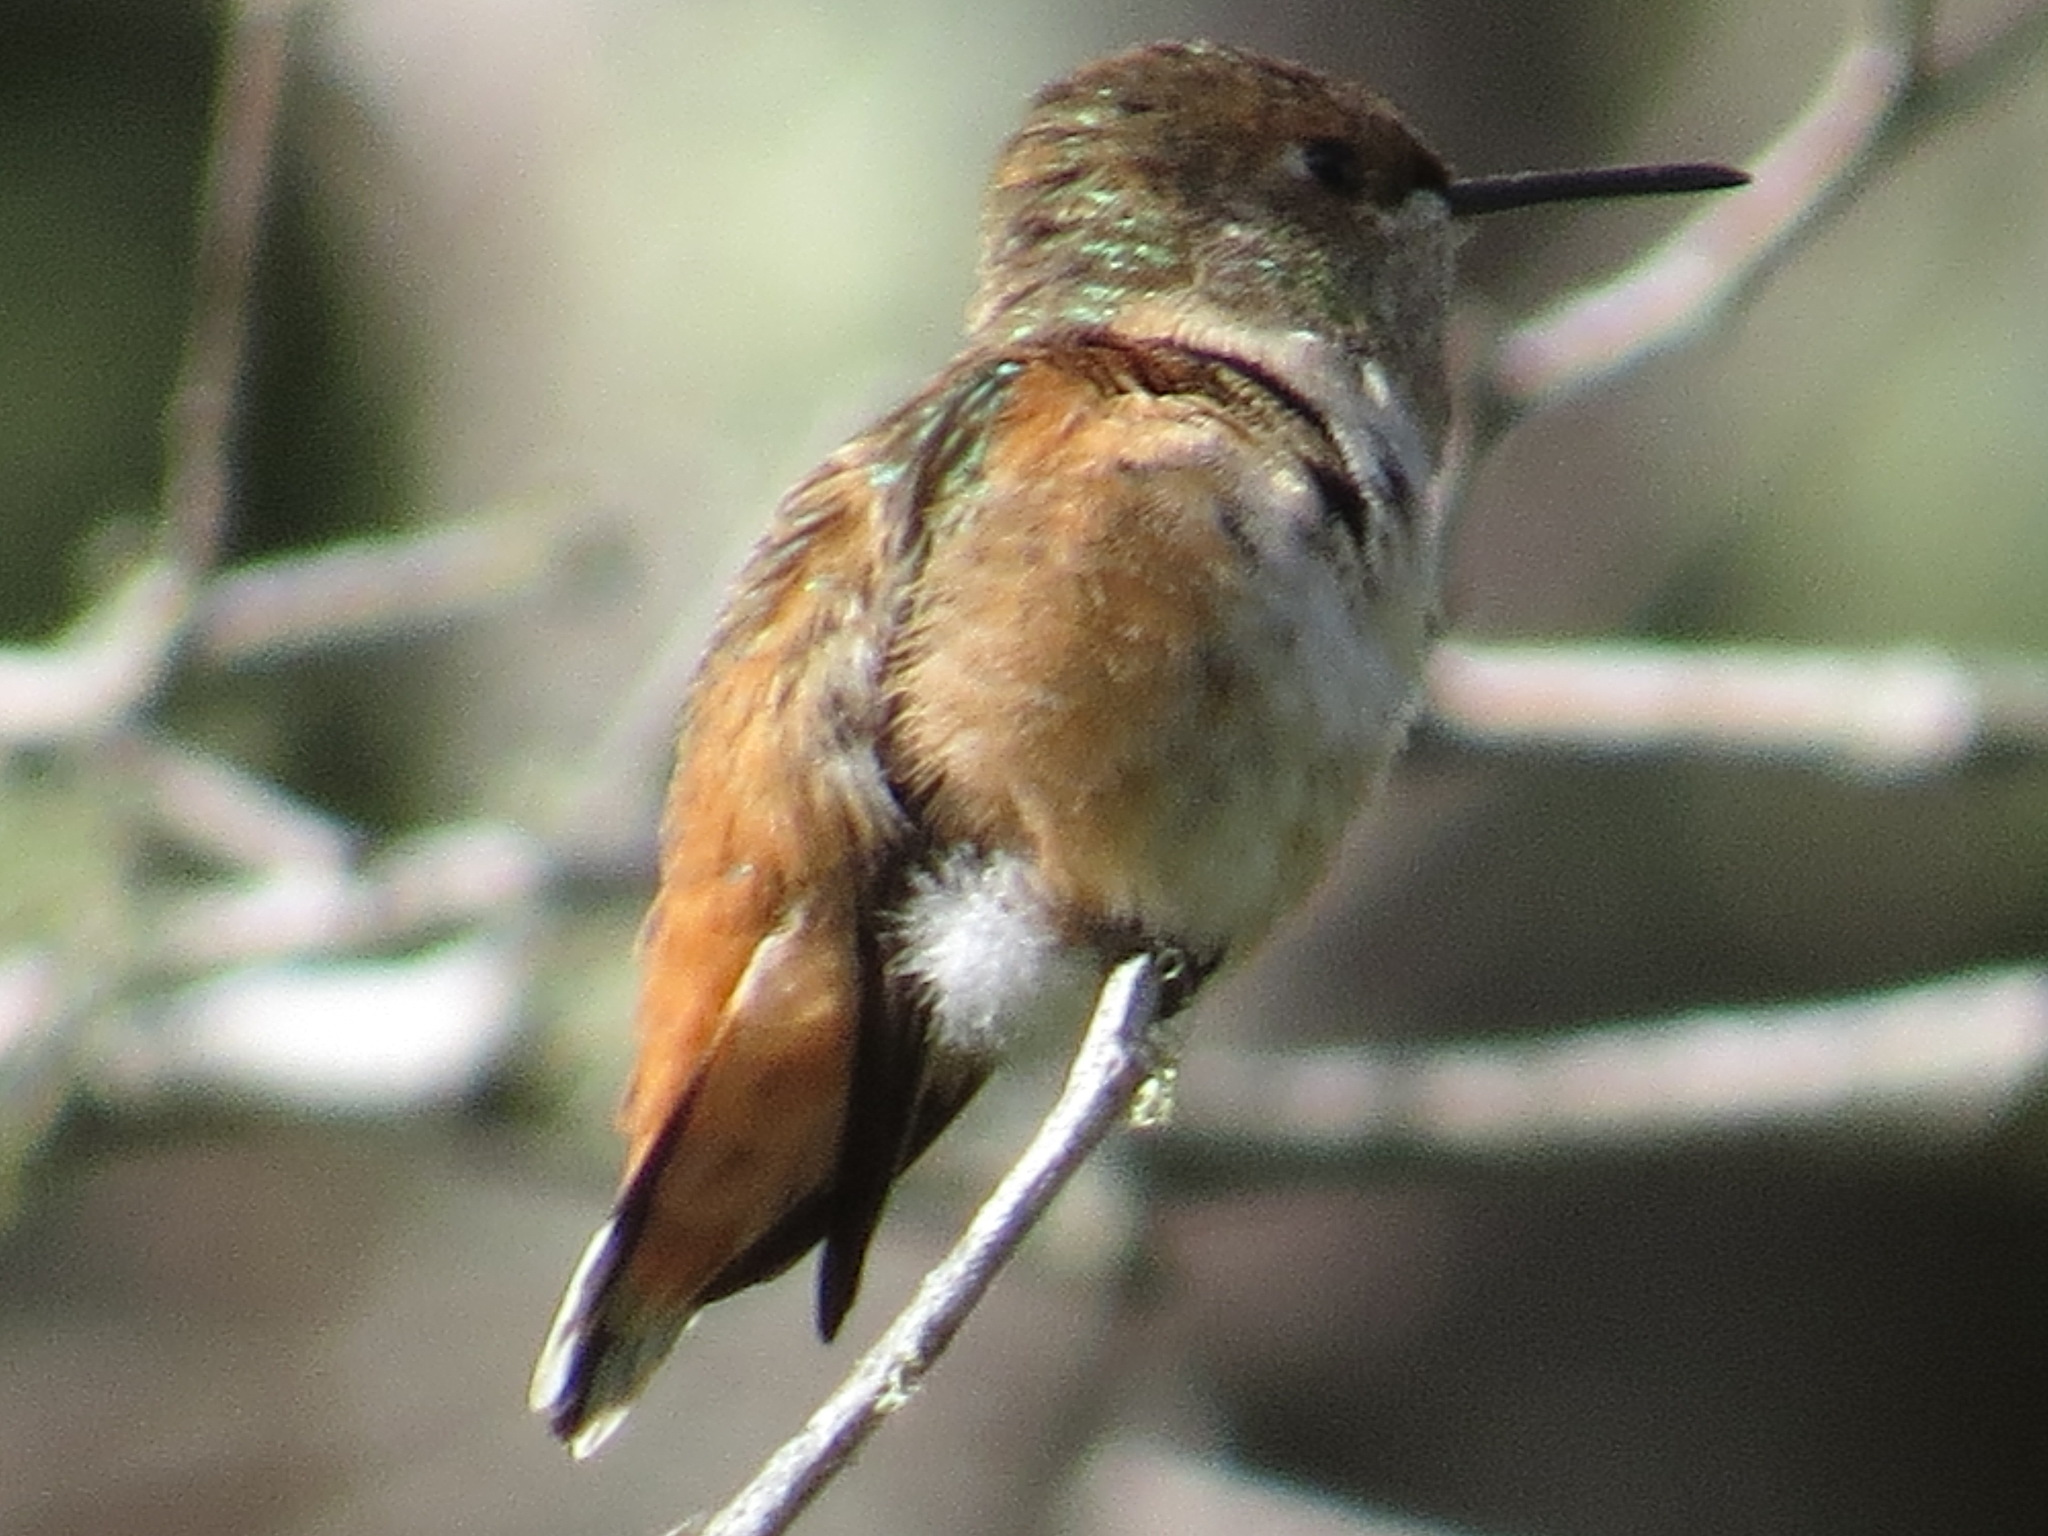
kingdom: Animalia
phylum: Chordata
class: Aves
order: Apodiformes
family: Trochilidae
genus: Selasphorus
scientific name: Selasphorus sasin
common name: Allen's hummingbird
